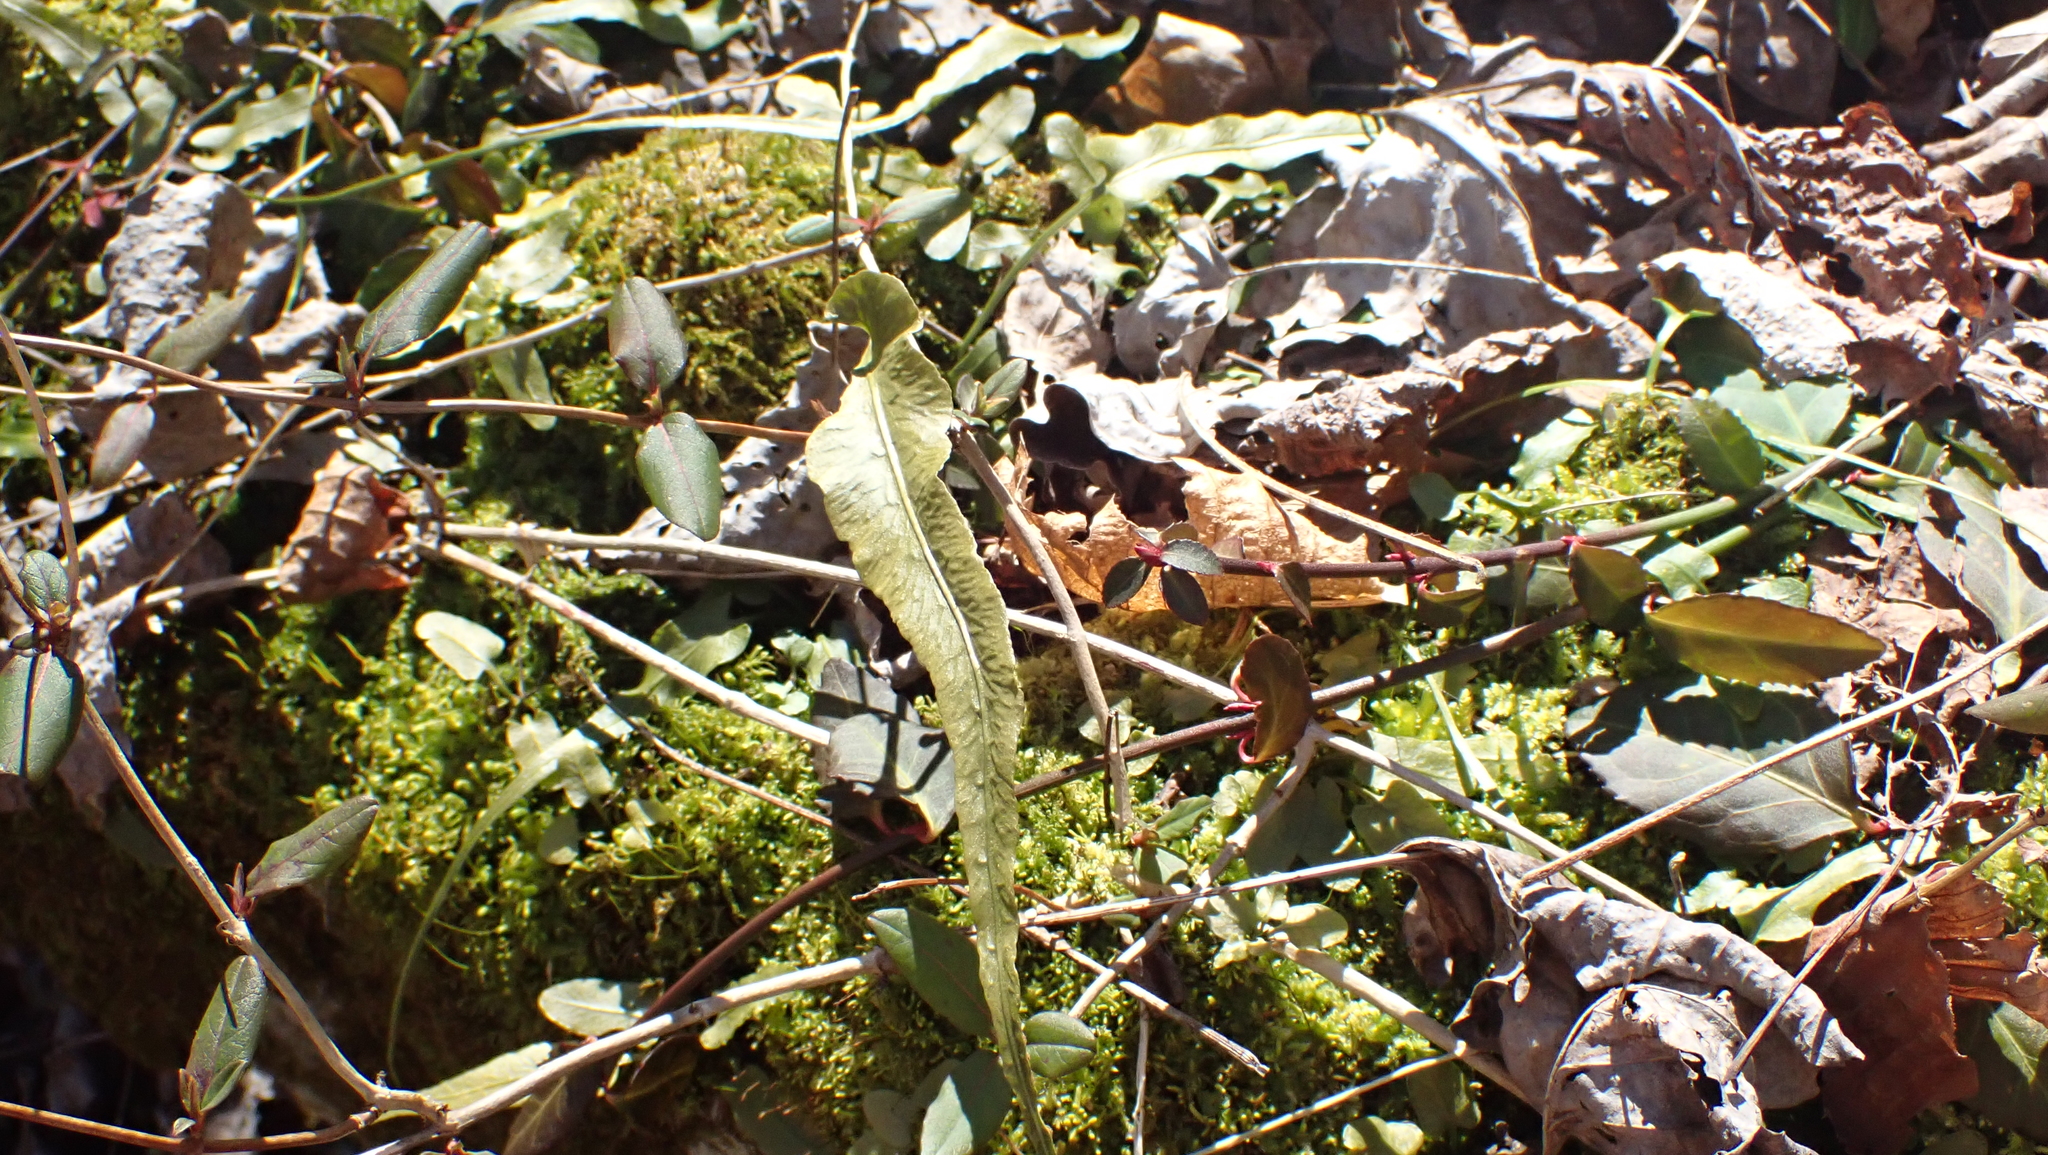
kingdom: Plantae
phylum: Tracheophyta
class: Polypodiopsida
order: Polypodiales
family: Aspleniaceae
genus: Asplenium
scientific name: Asplenium rhizophyllum
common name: Walking fern
